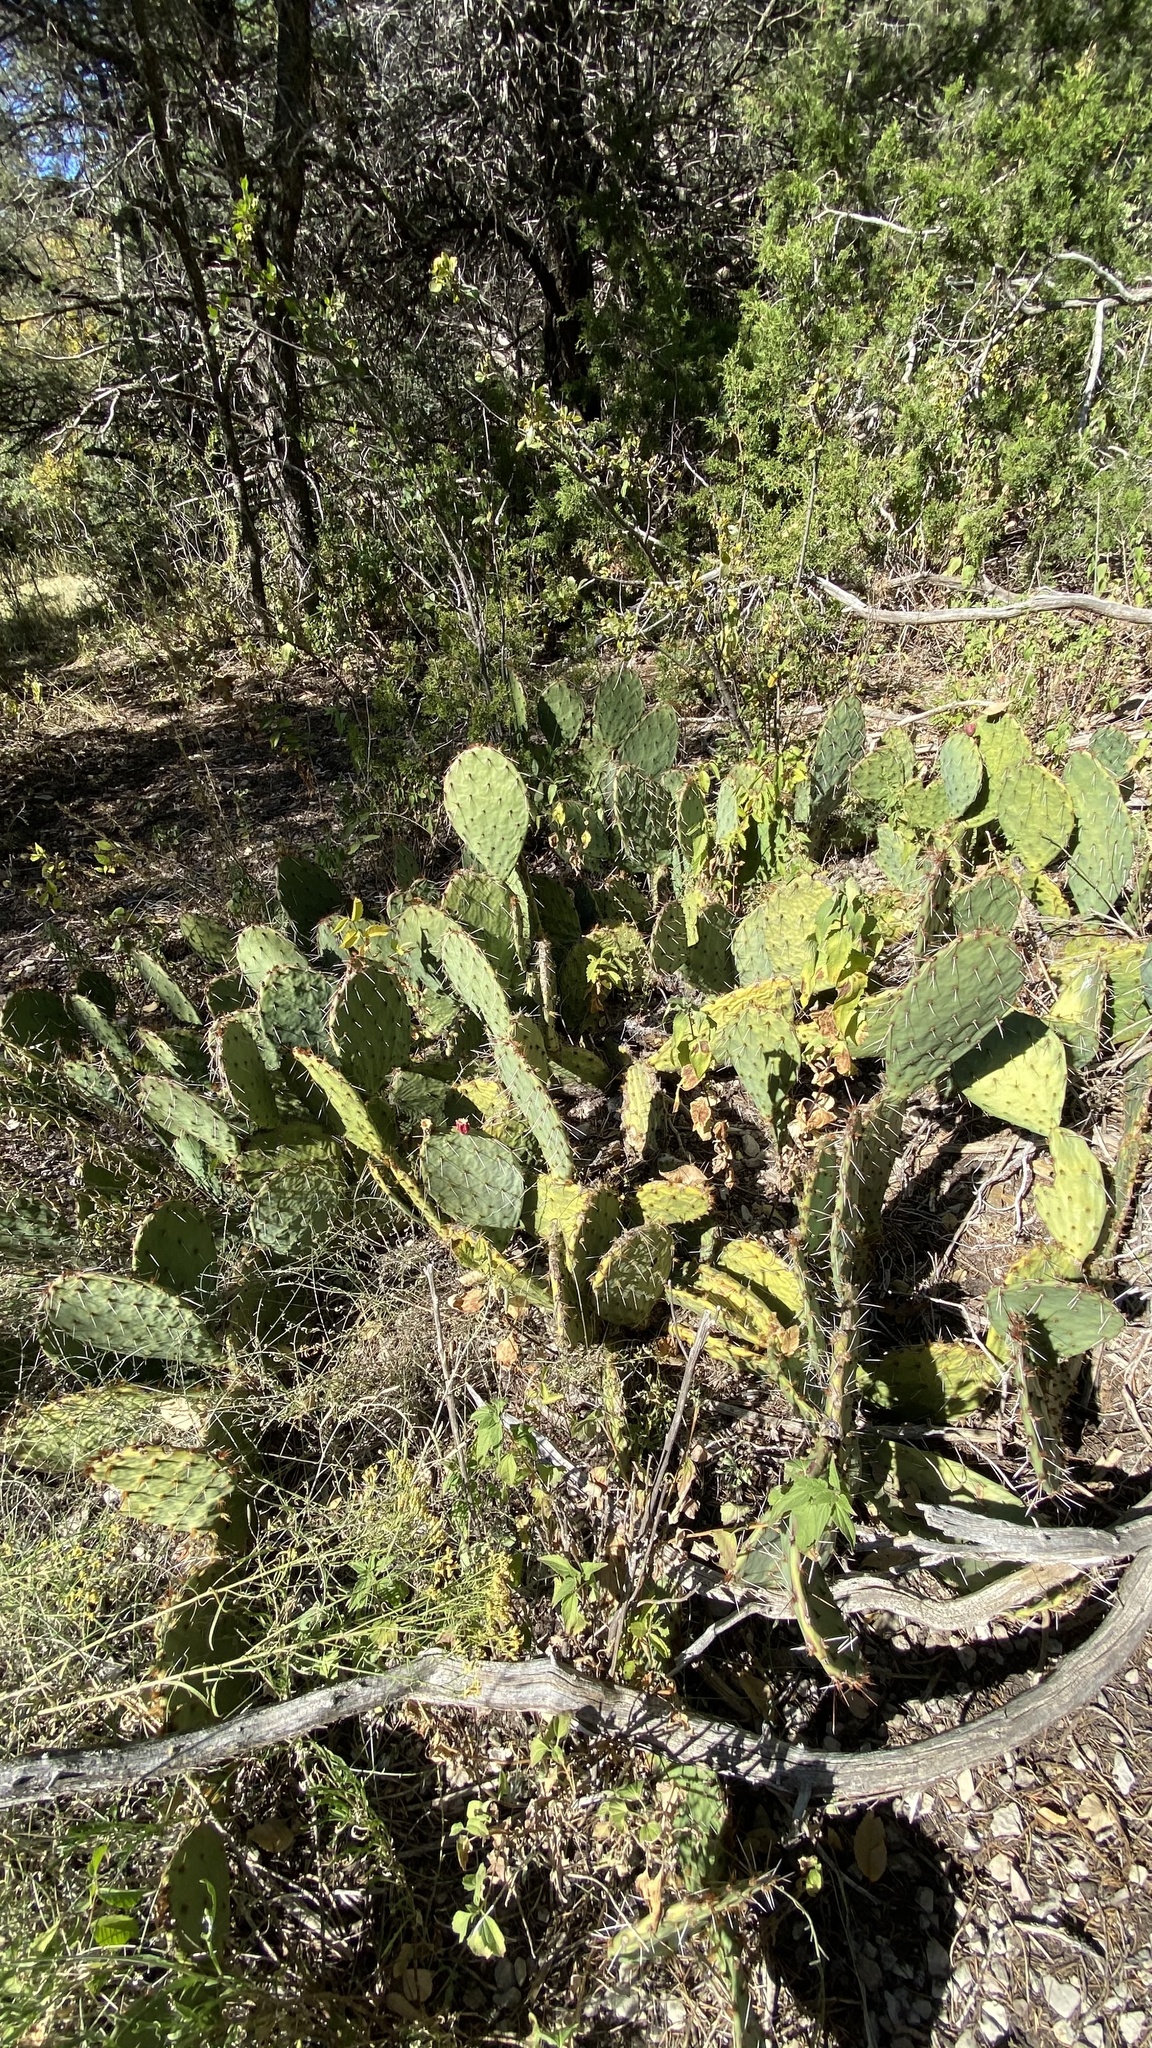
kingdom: Plantae
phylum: Tracheophyta
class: Magnoliopsida
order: Caryophyllales
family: Cactaceae
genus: Opuntia
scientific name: Opuntia engelmannii
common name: Cactus-apple
